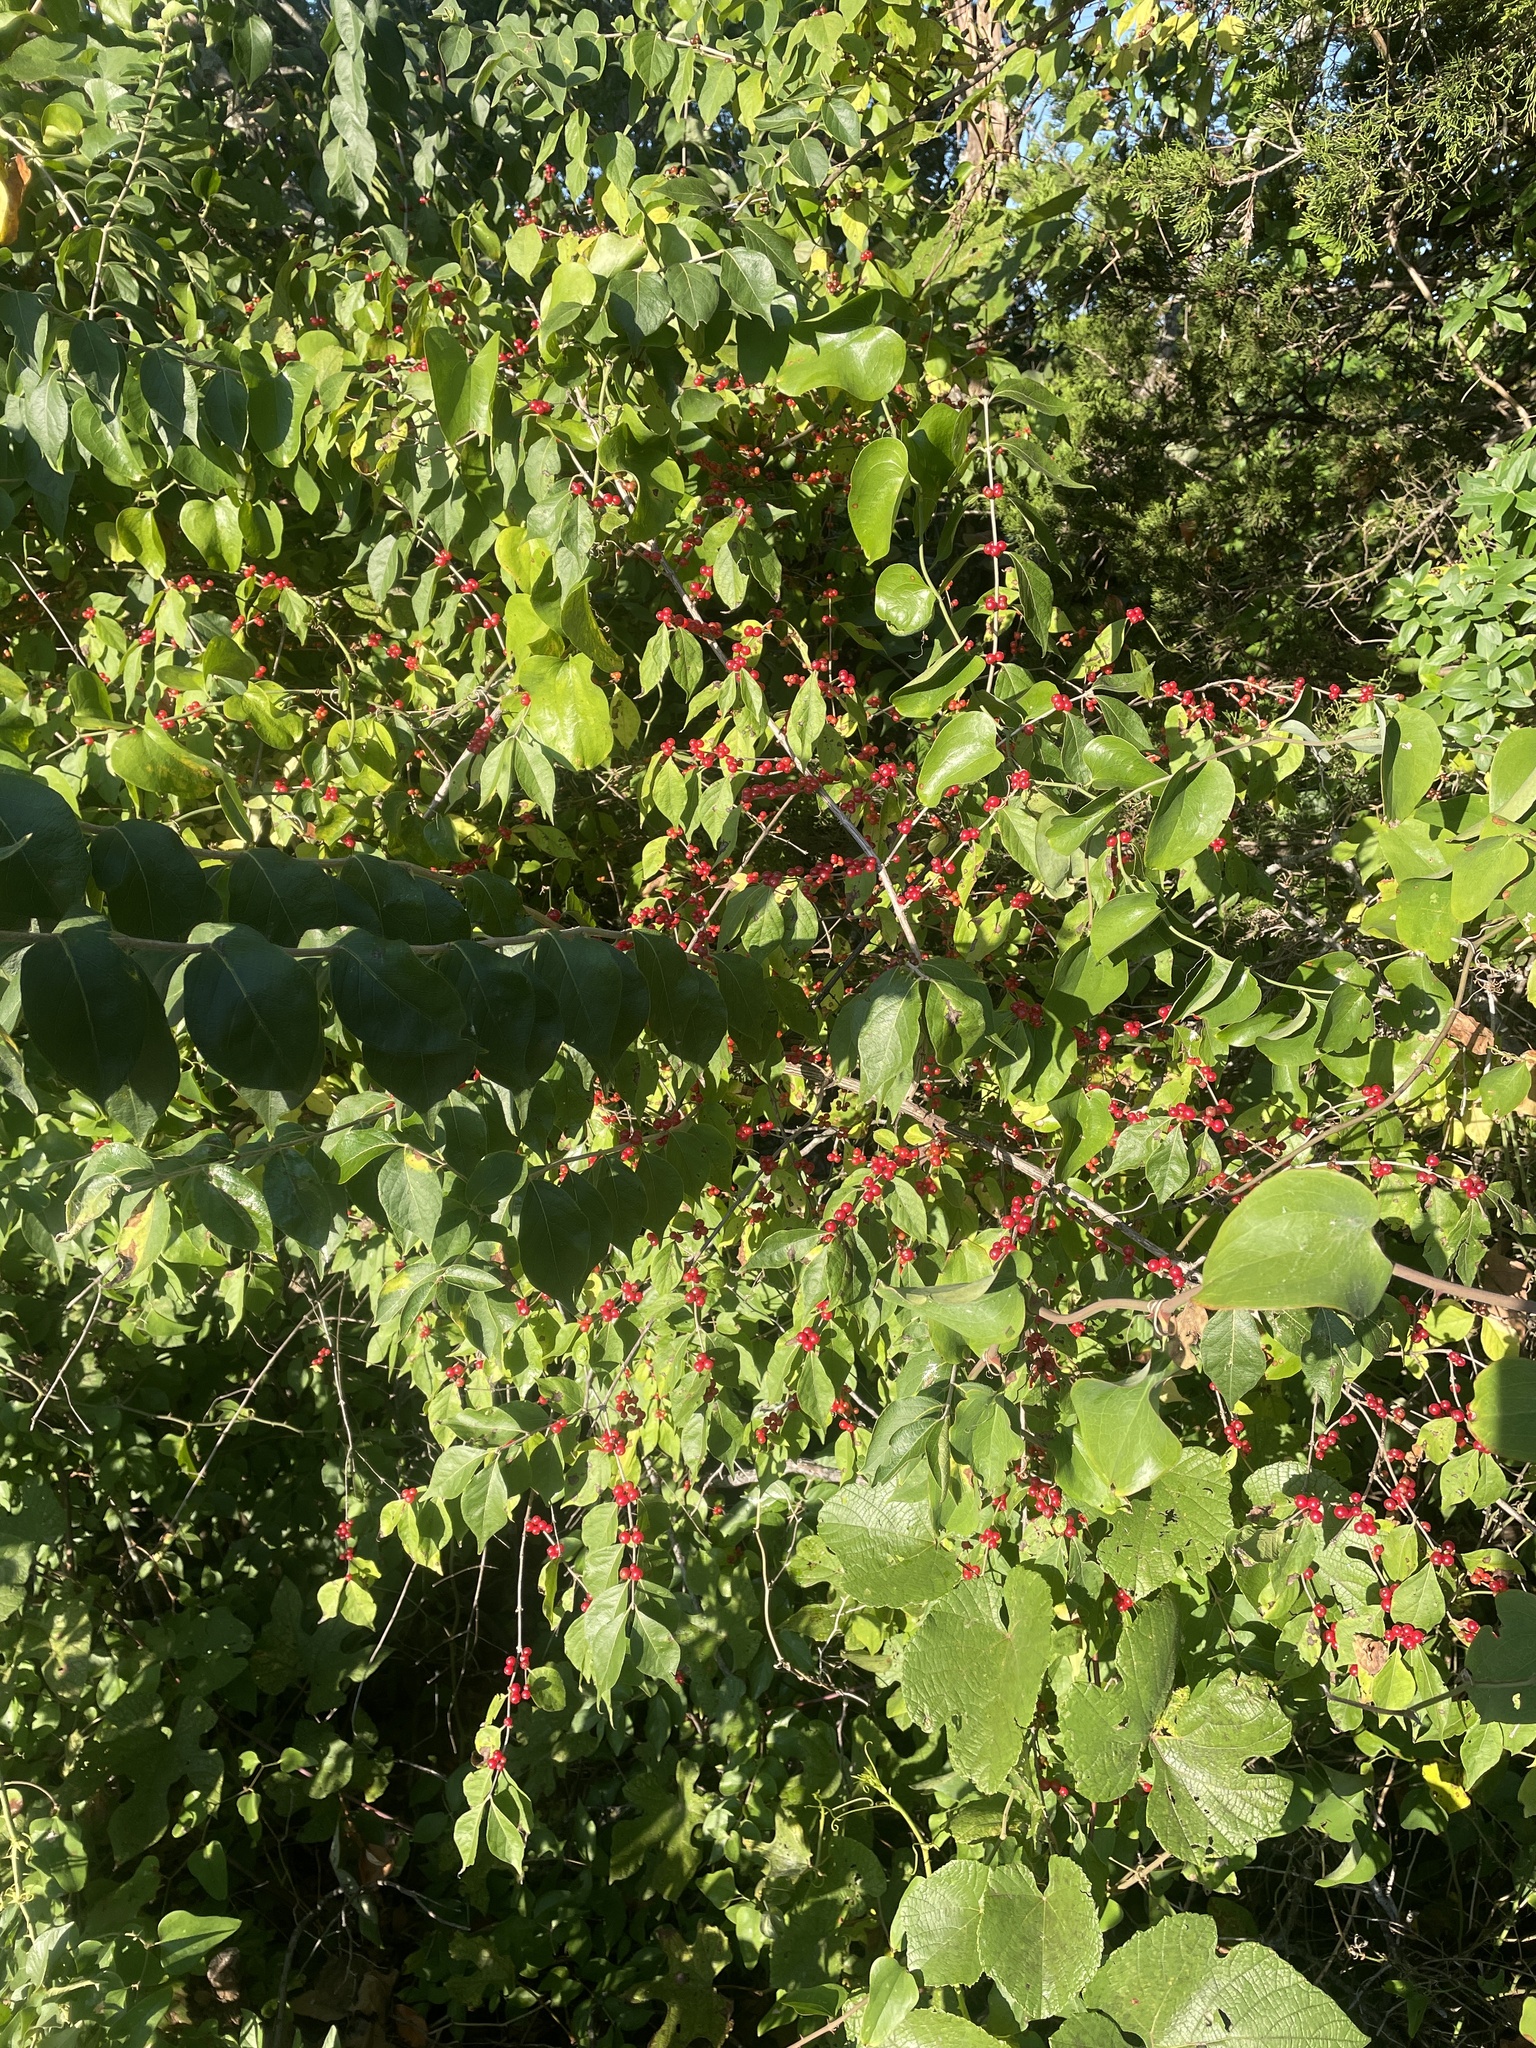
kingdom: Plantae
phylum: Tracheophyta
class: Magnoliopsida
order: Dipsacales
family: Caprifoliaceae
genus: Lonicera
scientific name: Lonicera maackii
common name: Amur honeysuckle
